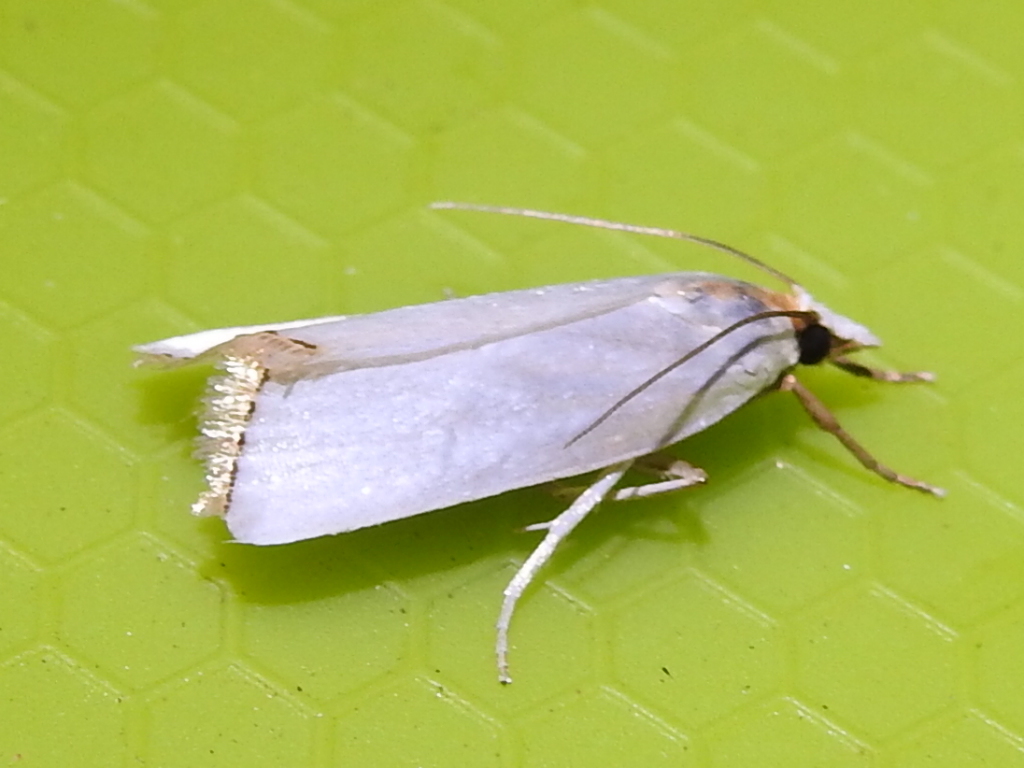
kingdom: Animalia
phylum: Arthropoda
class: Insecta
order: Lepidoptera
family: Crambidae
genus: Argyria
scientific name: Argyria nivalis
